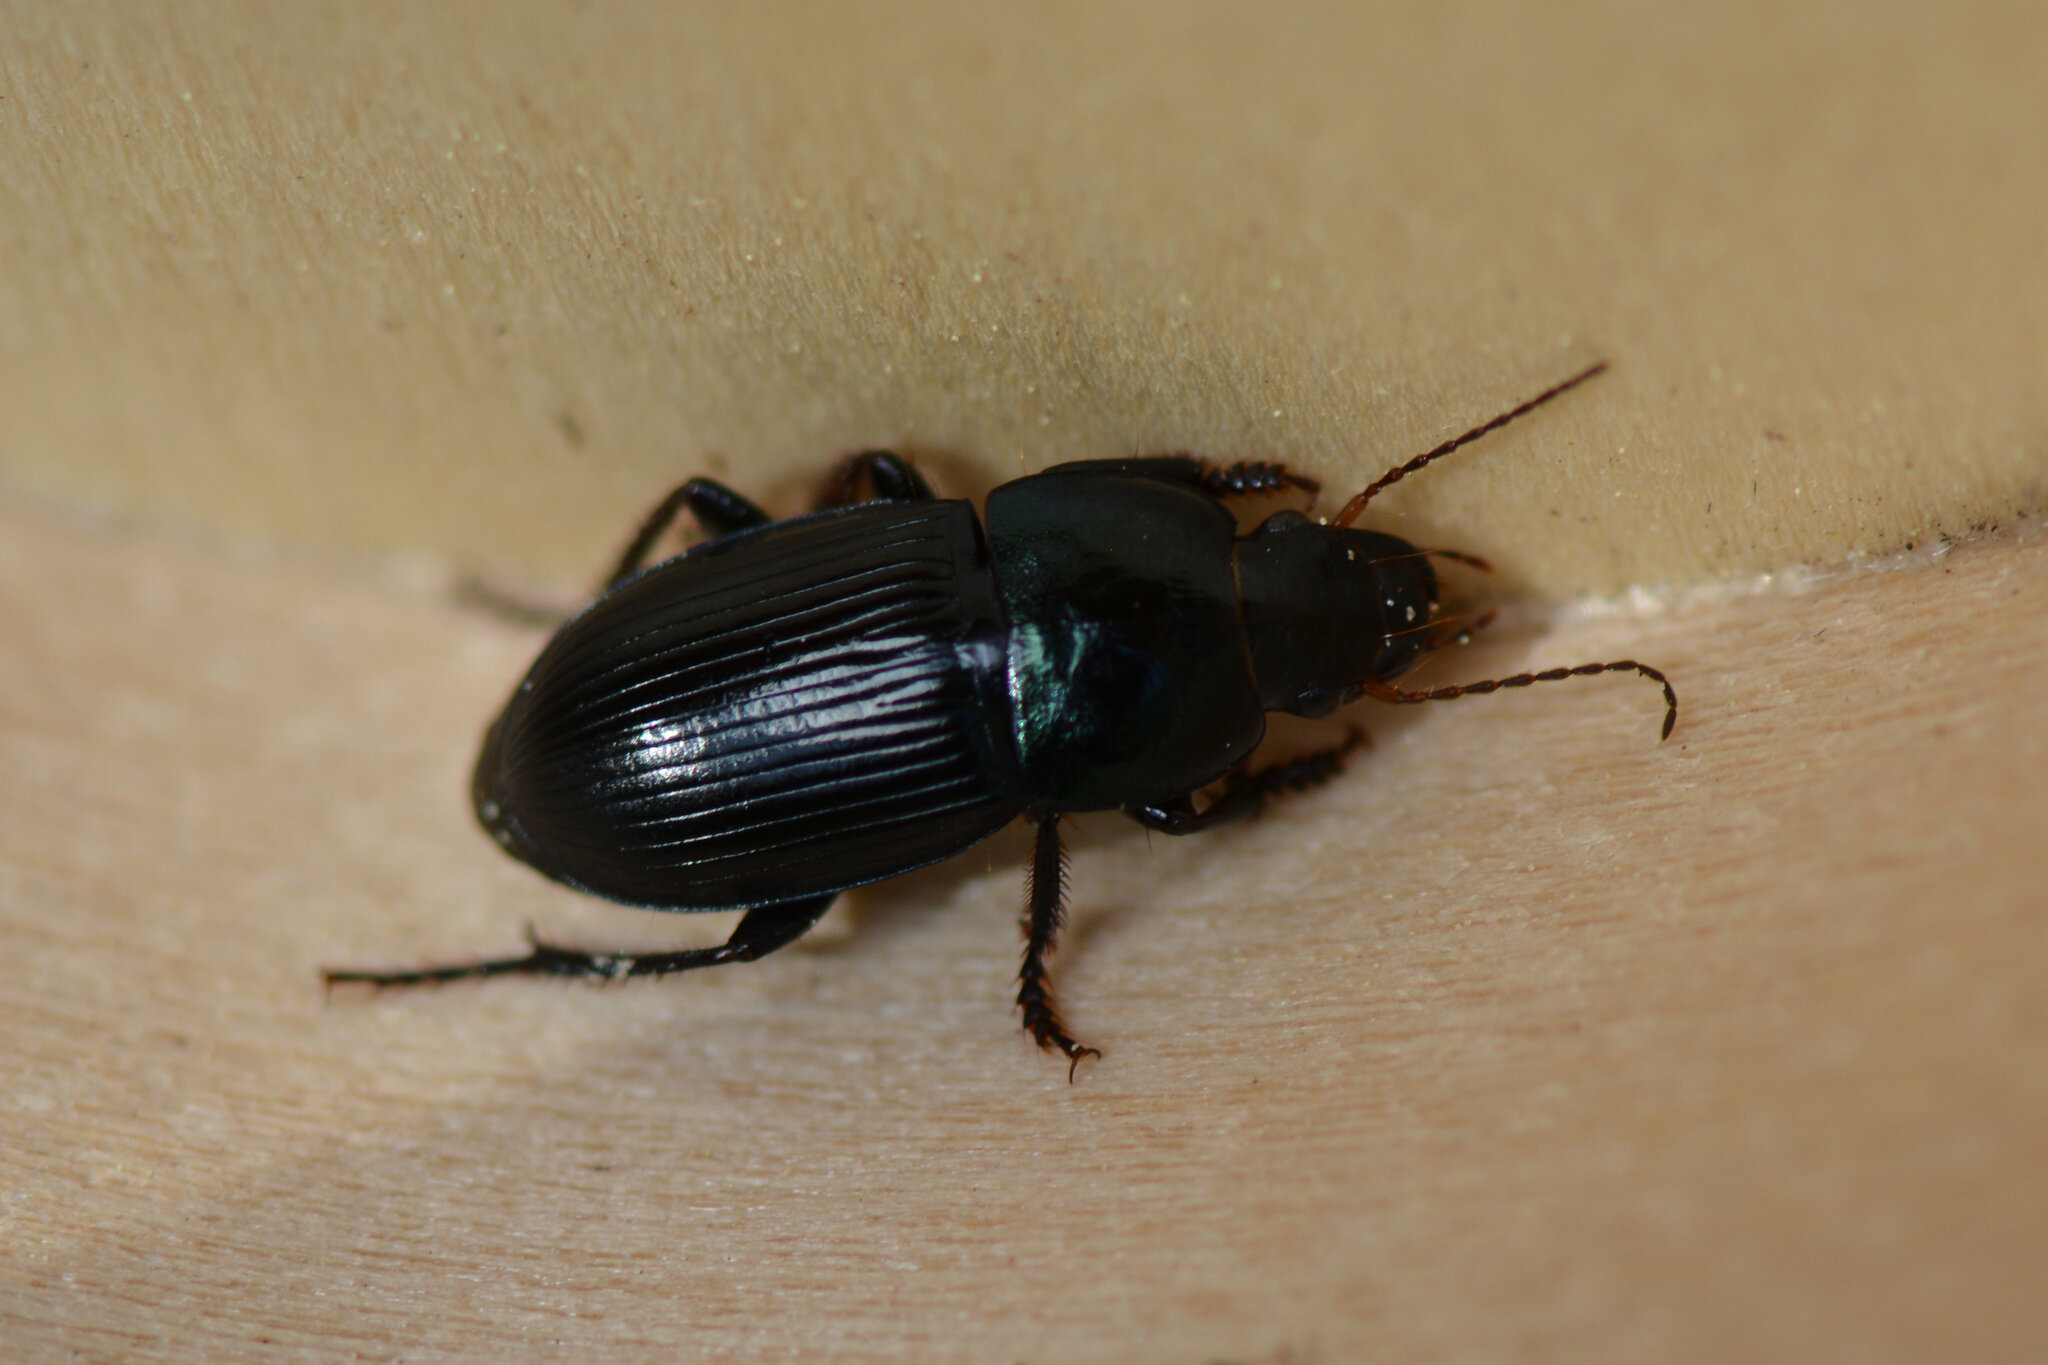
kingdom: Animalia
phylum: Arthropoda
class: Insecta
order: Coleoptera
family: Carabidae
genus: Harpalus
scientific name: Harpalus dimidiatus
